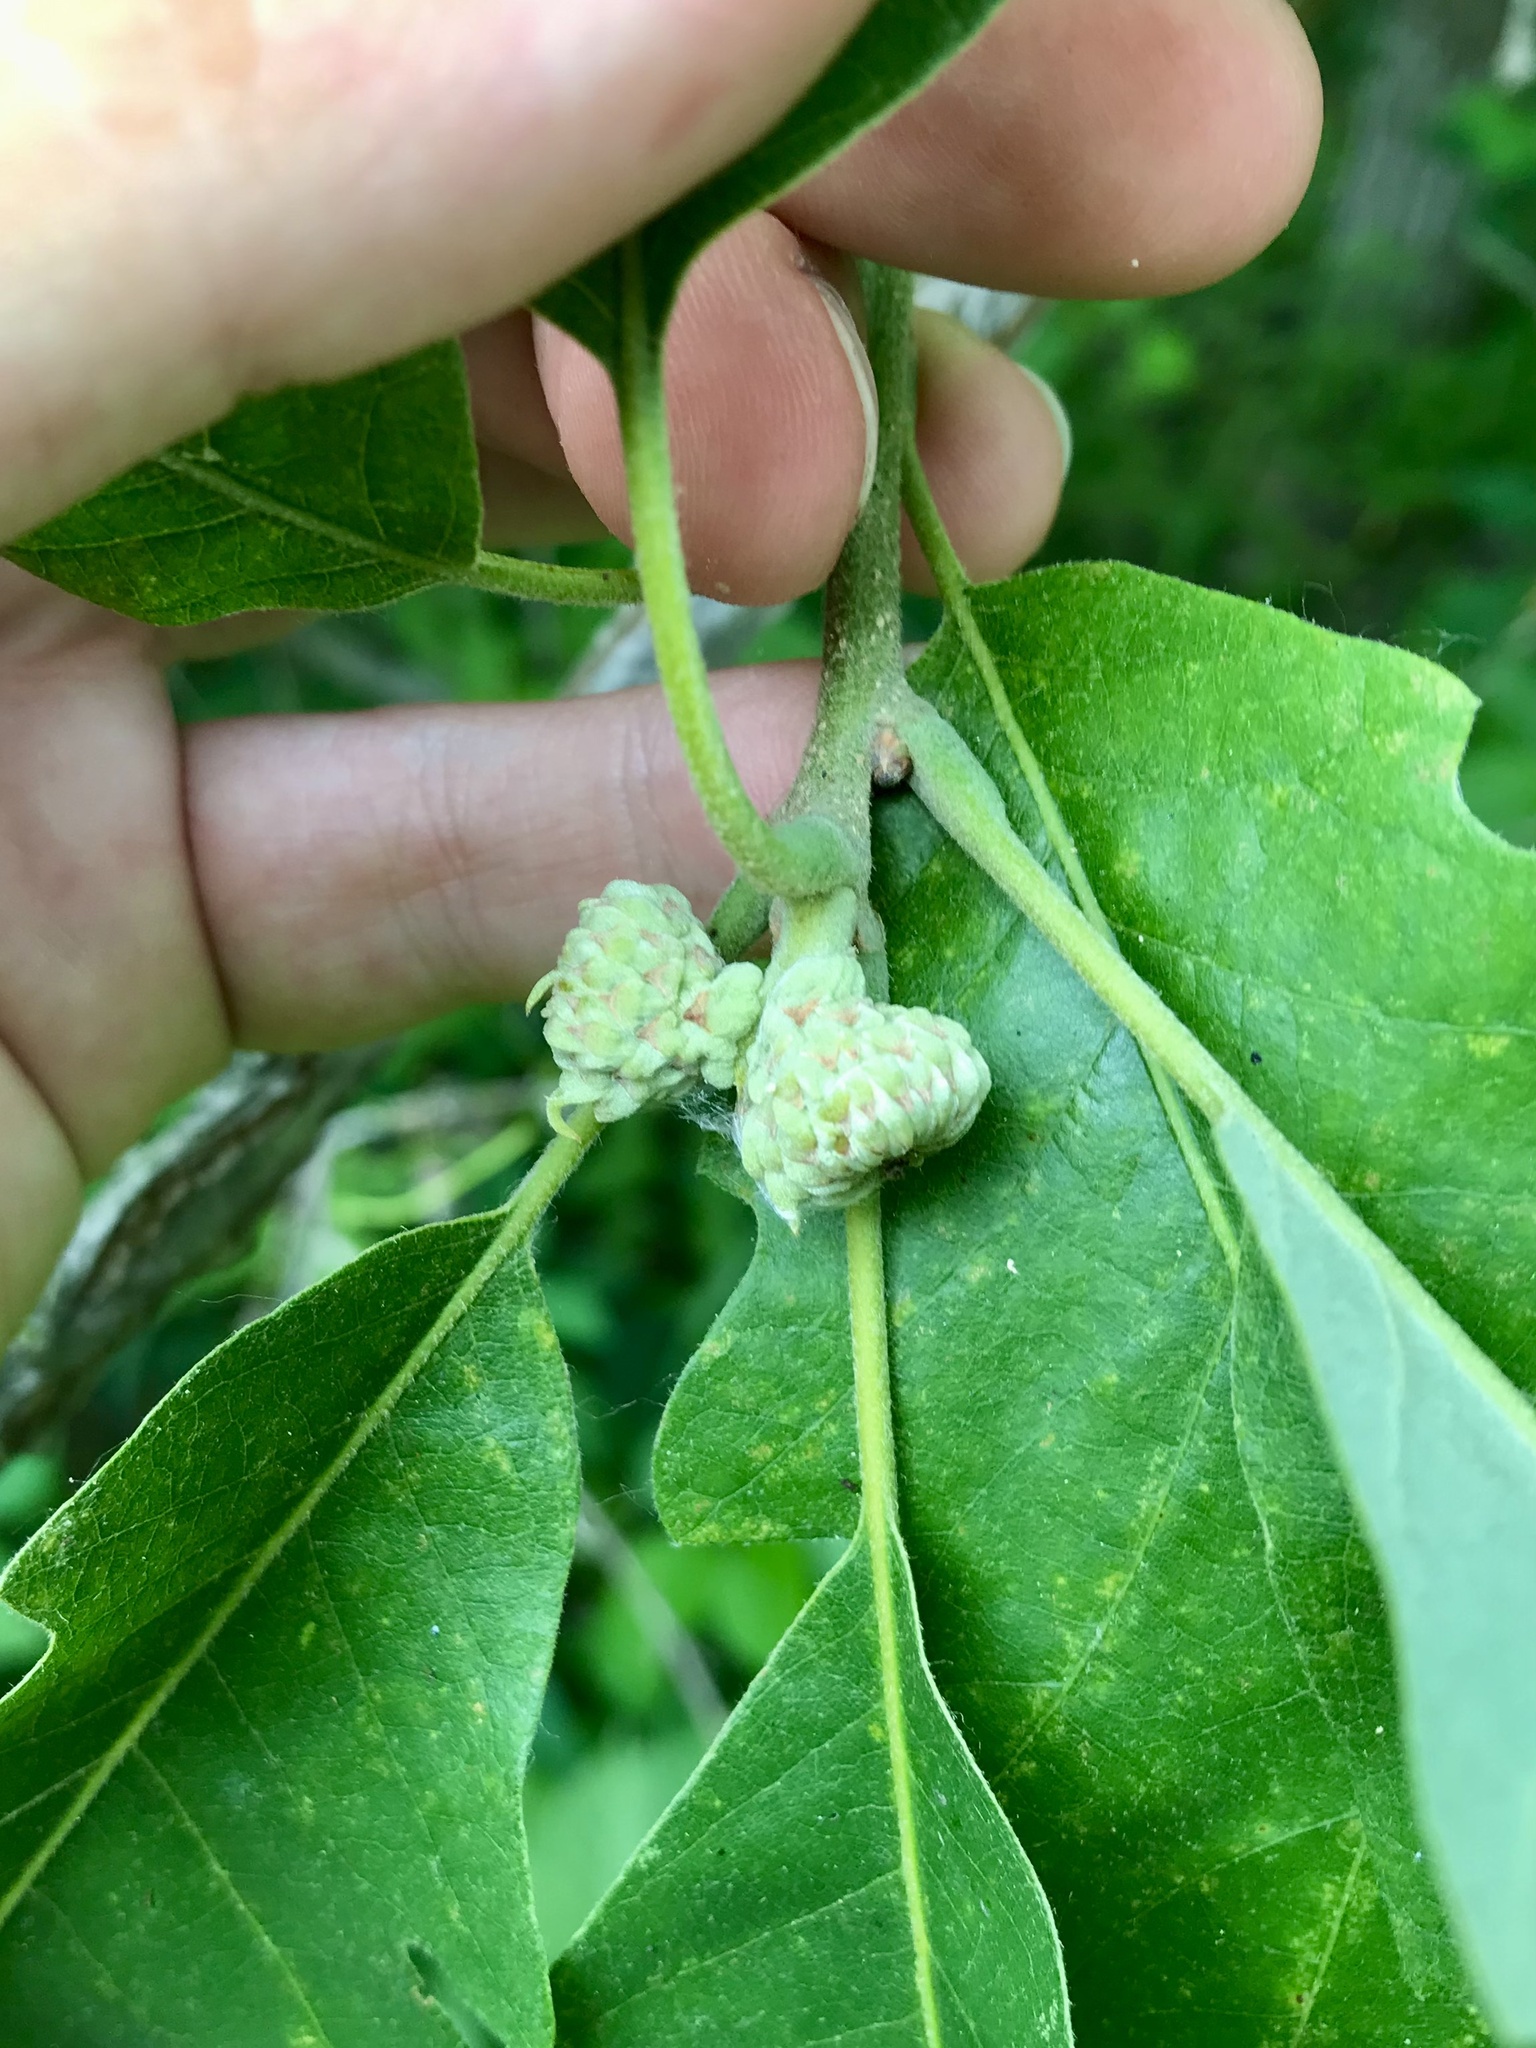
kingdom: Plantae
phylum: Tracheophyta
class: Magnoliopsida
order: Fagales
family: Fagaceae
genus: Quercus
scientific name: Quercus macrocarpa
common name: Bur oak
